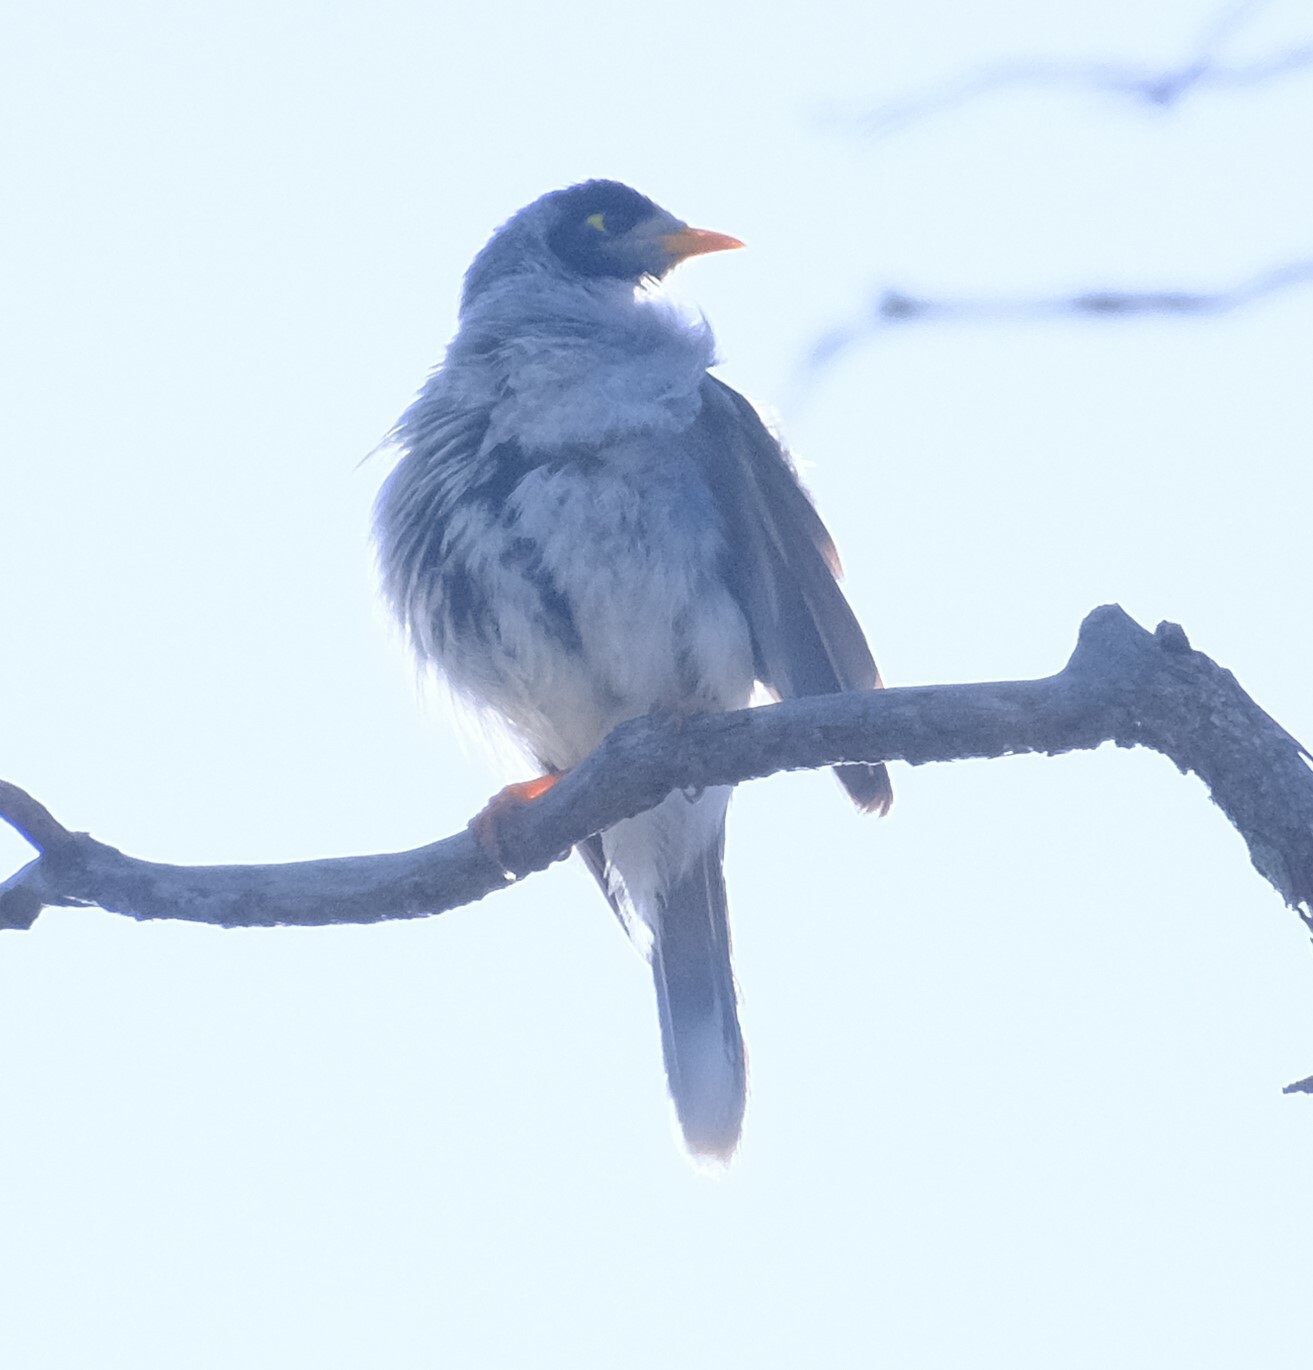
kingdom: Animalia
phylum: Chordata
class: Aves
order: Passeriformes
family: Meliphagidae
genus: Manorina
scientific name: Manorina melanocephala
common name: Noisy miner
